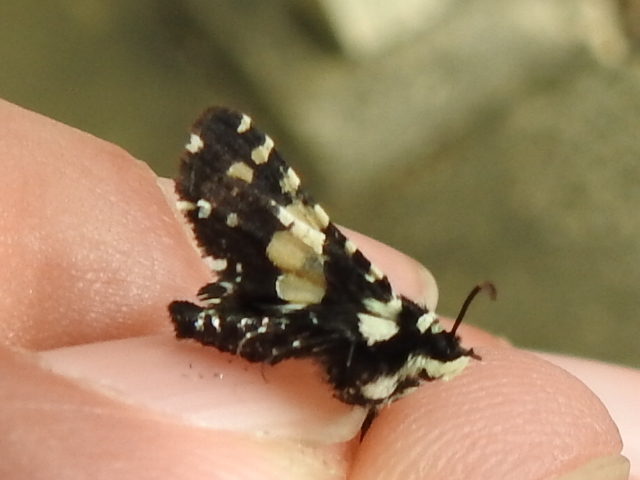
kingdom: Animalia
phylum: Arthropoda
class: Insecta
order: Lepidoptera
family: Thyrididae
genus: Pseudothyris
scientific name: Pseudothyris sepulchralis
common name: Mournful thyris moth
